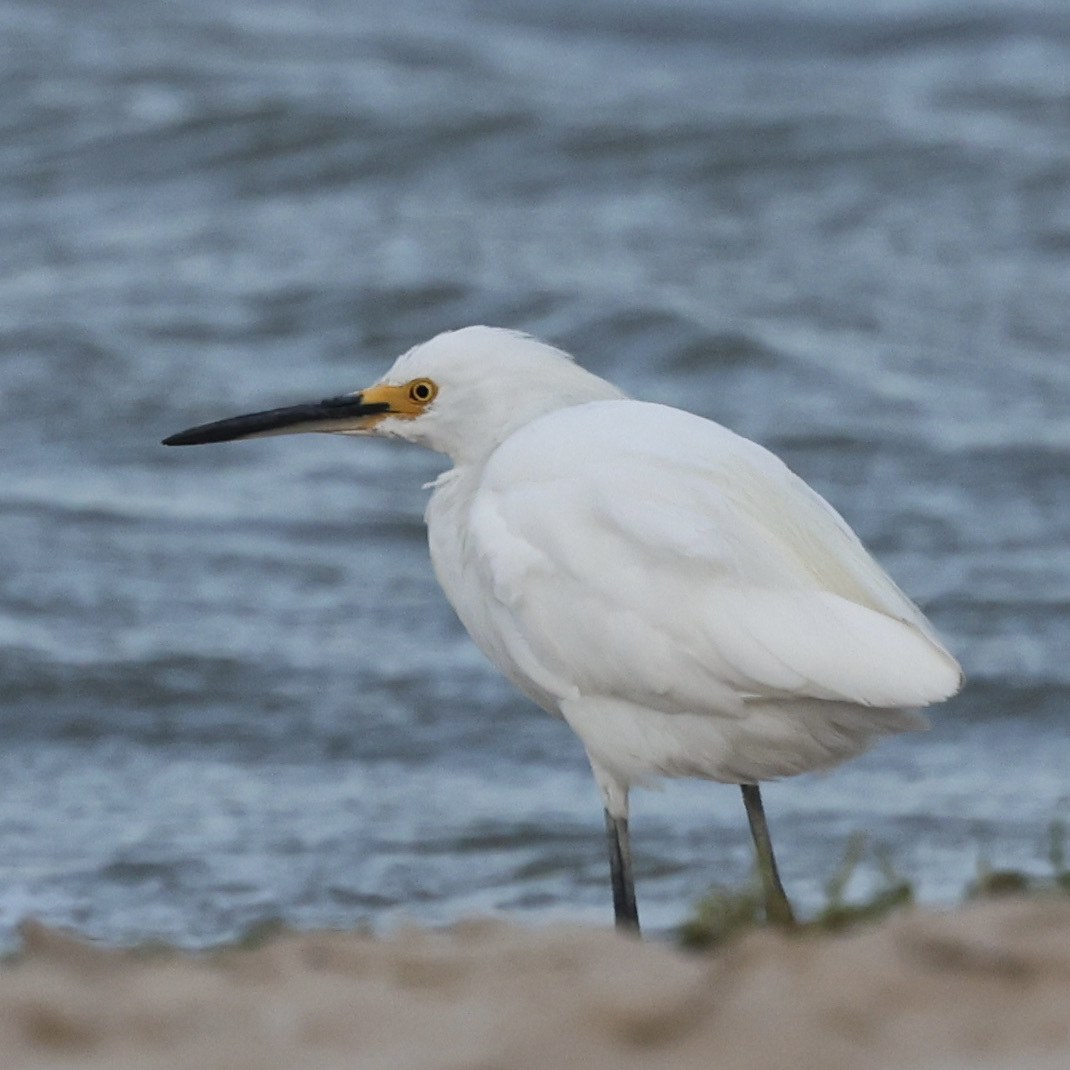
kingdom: Animalia
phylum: Chordata
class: Aves
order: Pelecaniformes
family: Ardeidae
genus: Egretta
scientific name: Egretta thula
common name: Snowy egret
